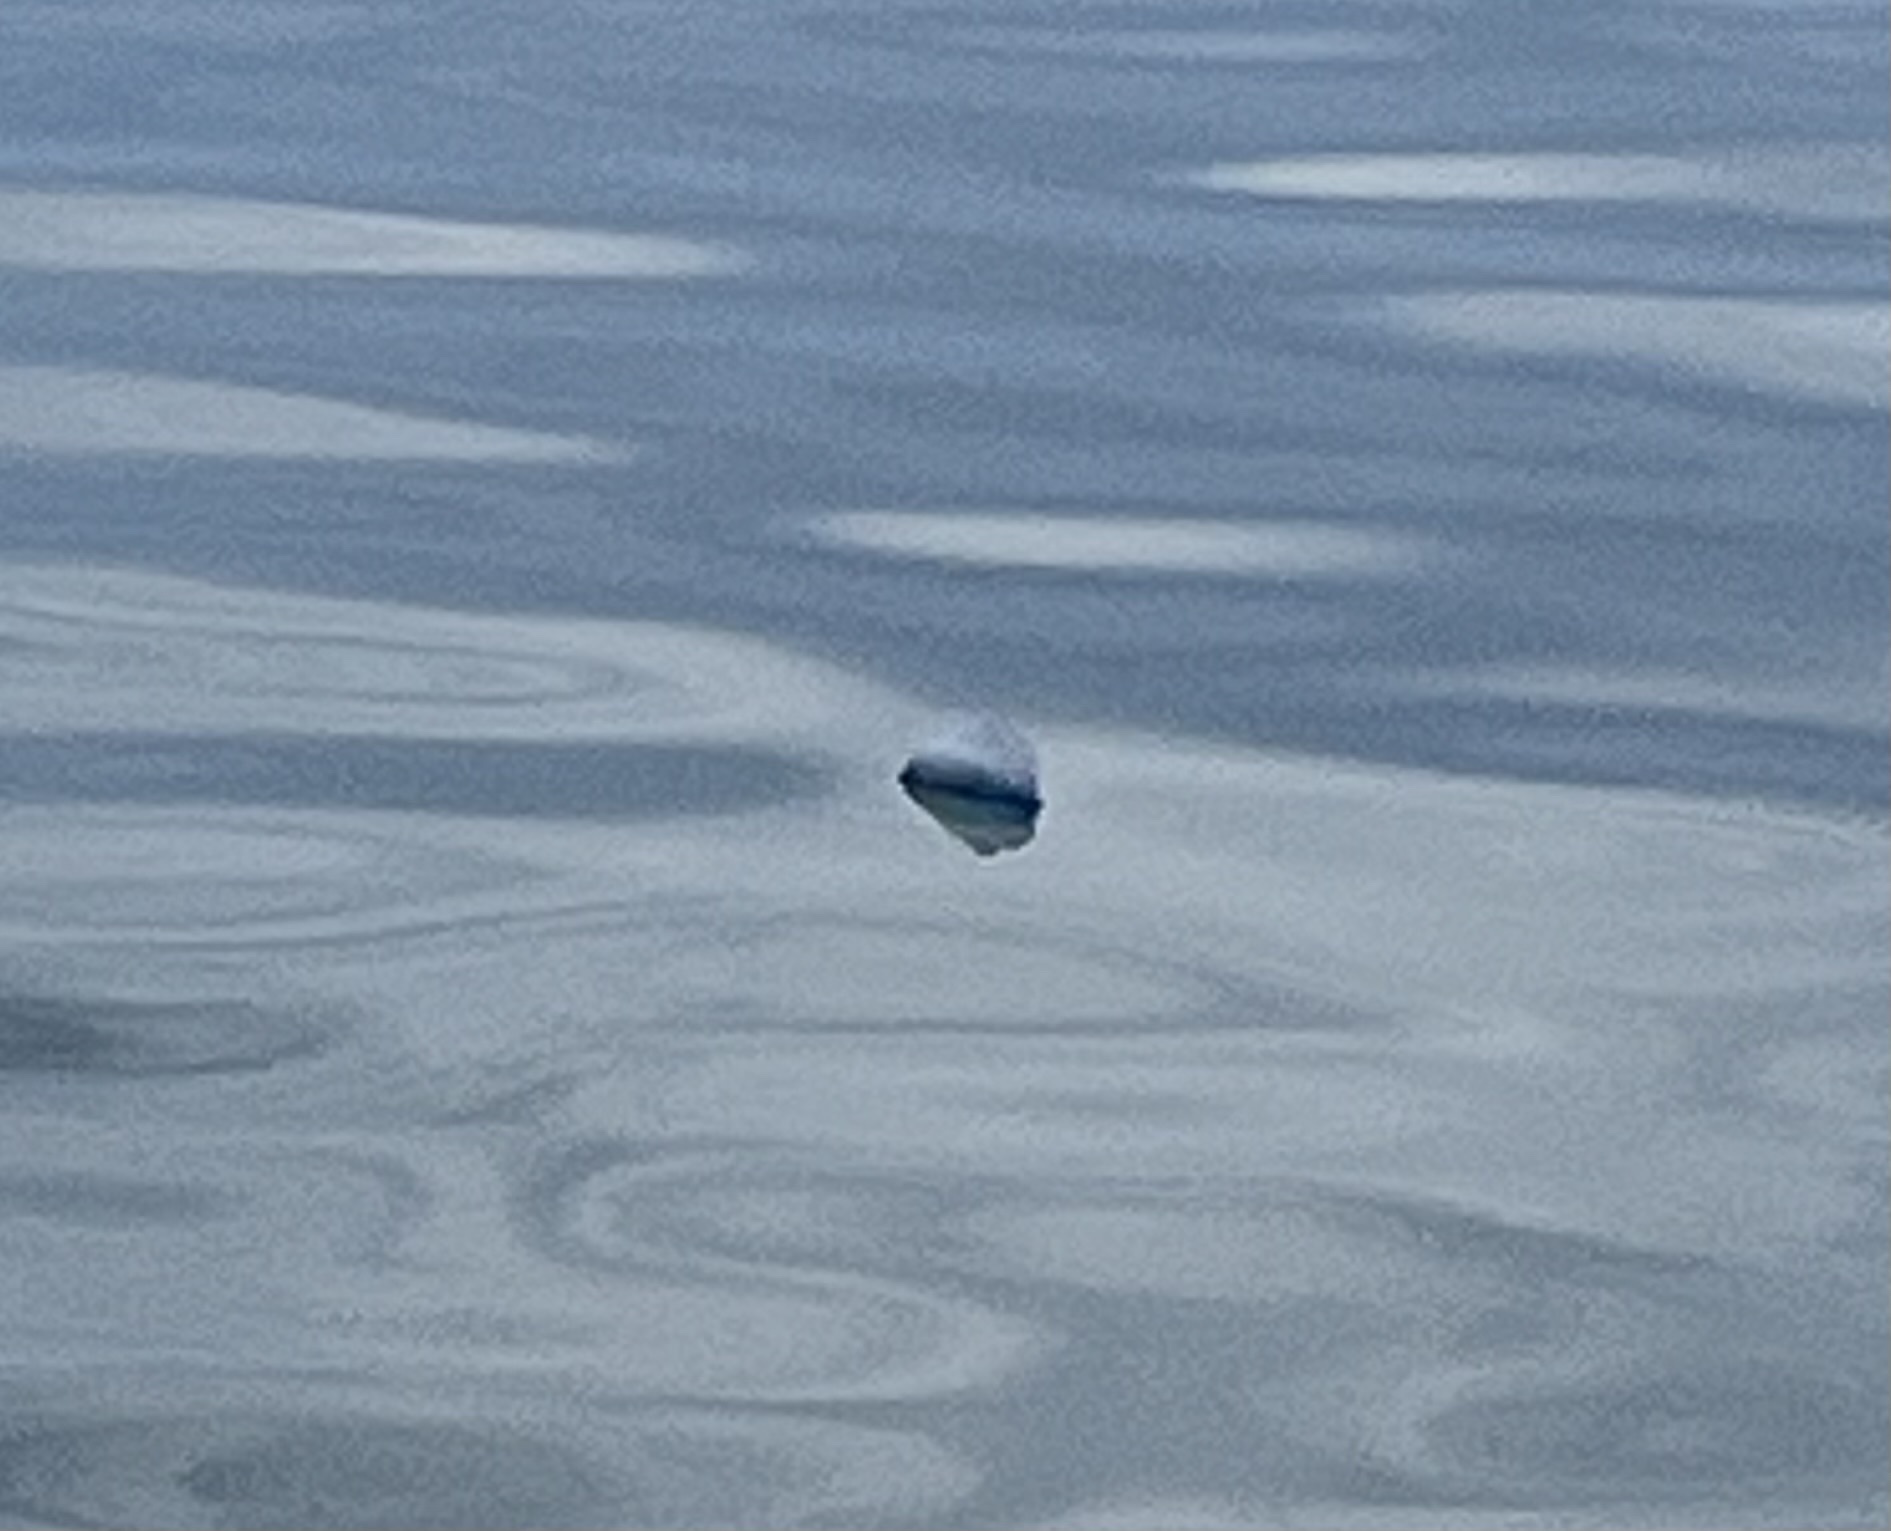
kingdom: Animalia
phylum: Cnidaria
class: Hydrozoa
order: Siphonophorae
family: Physaliidae
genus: Physalia
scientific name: Physalia physalis
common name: Portuguese man-of-war
